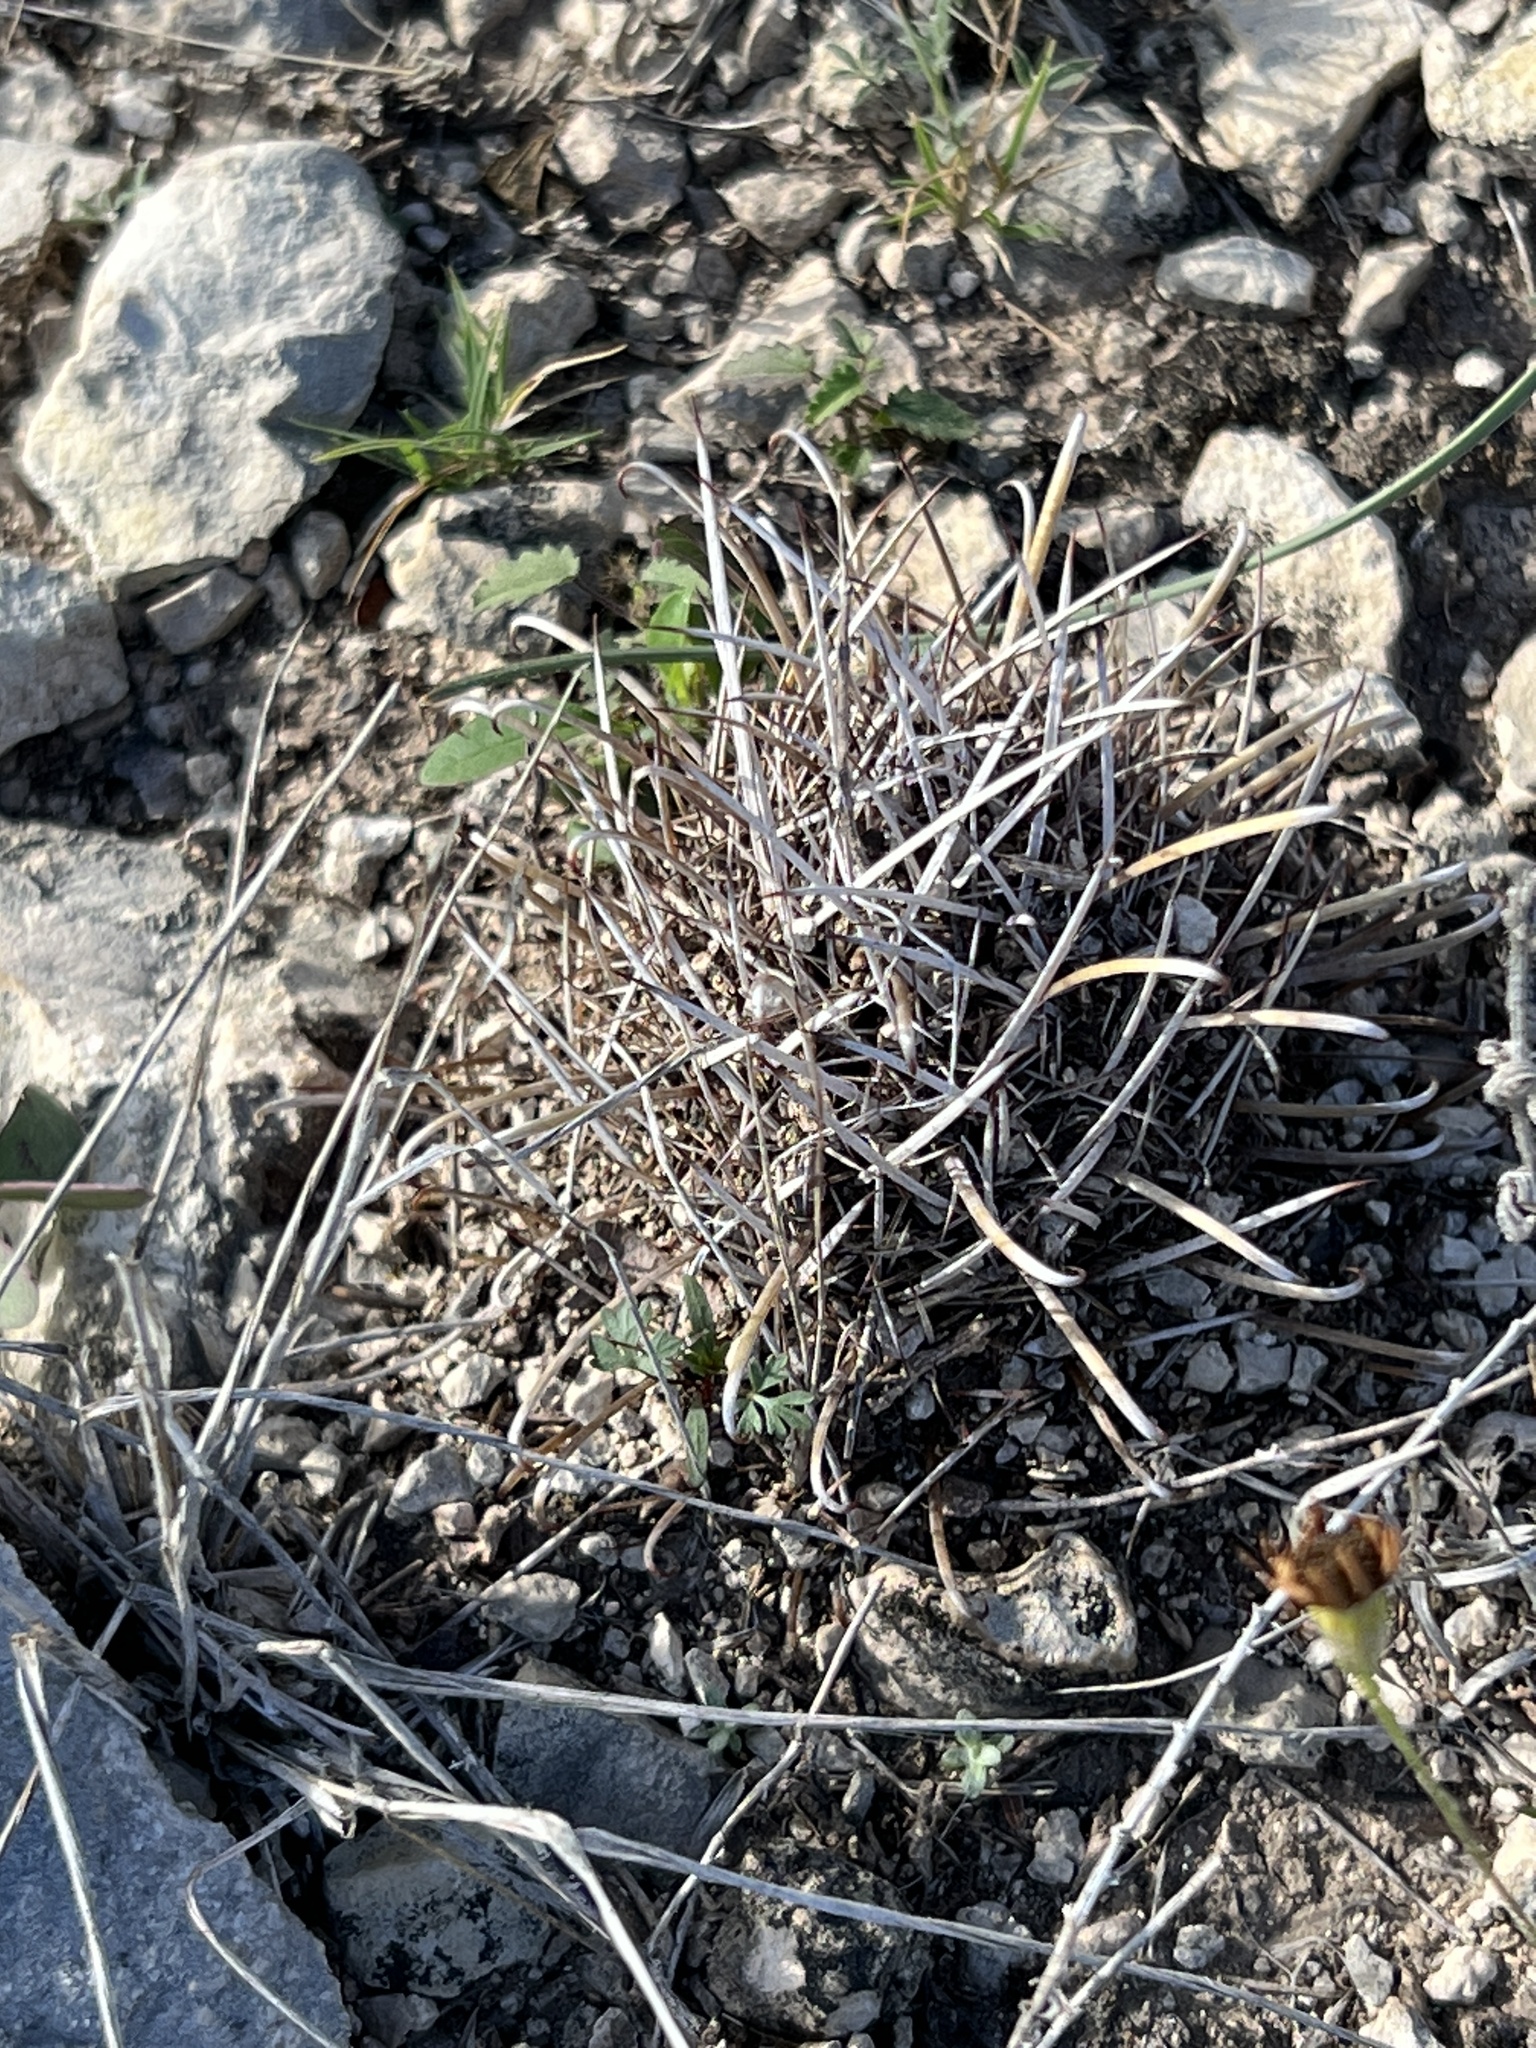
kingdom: Plantae
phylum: Tracheophyta
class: Magnoliopsida
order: Caryophyllales
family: Cactaceae
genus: Sclerocactus
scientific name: Sclerocactus brevihamatus
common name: Engelmann's fishhook cactus
